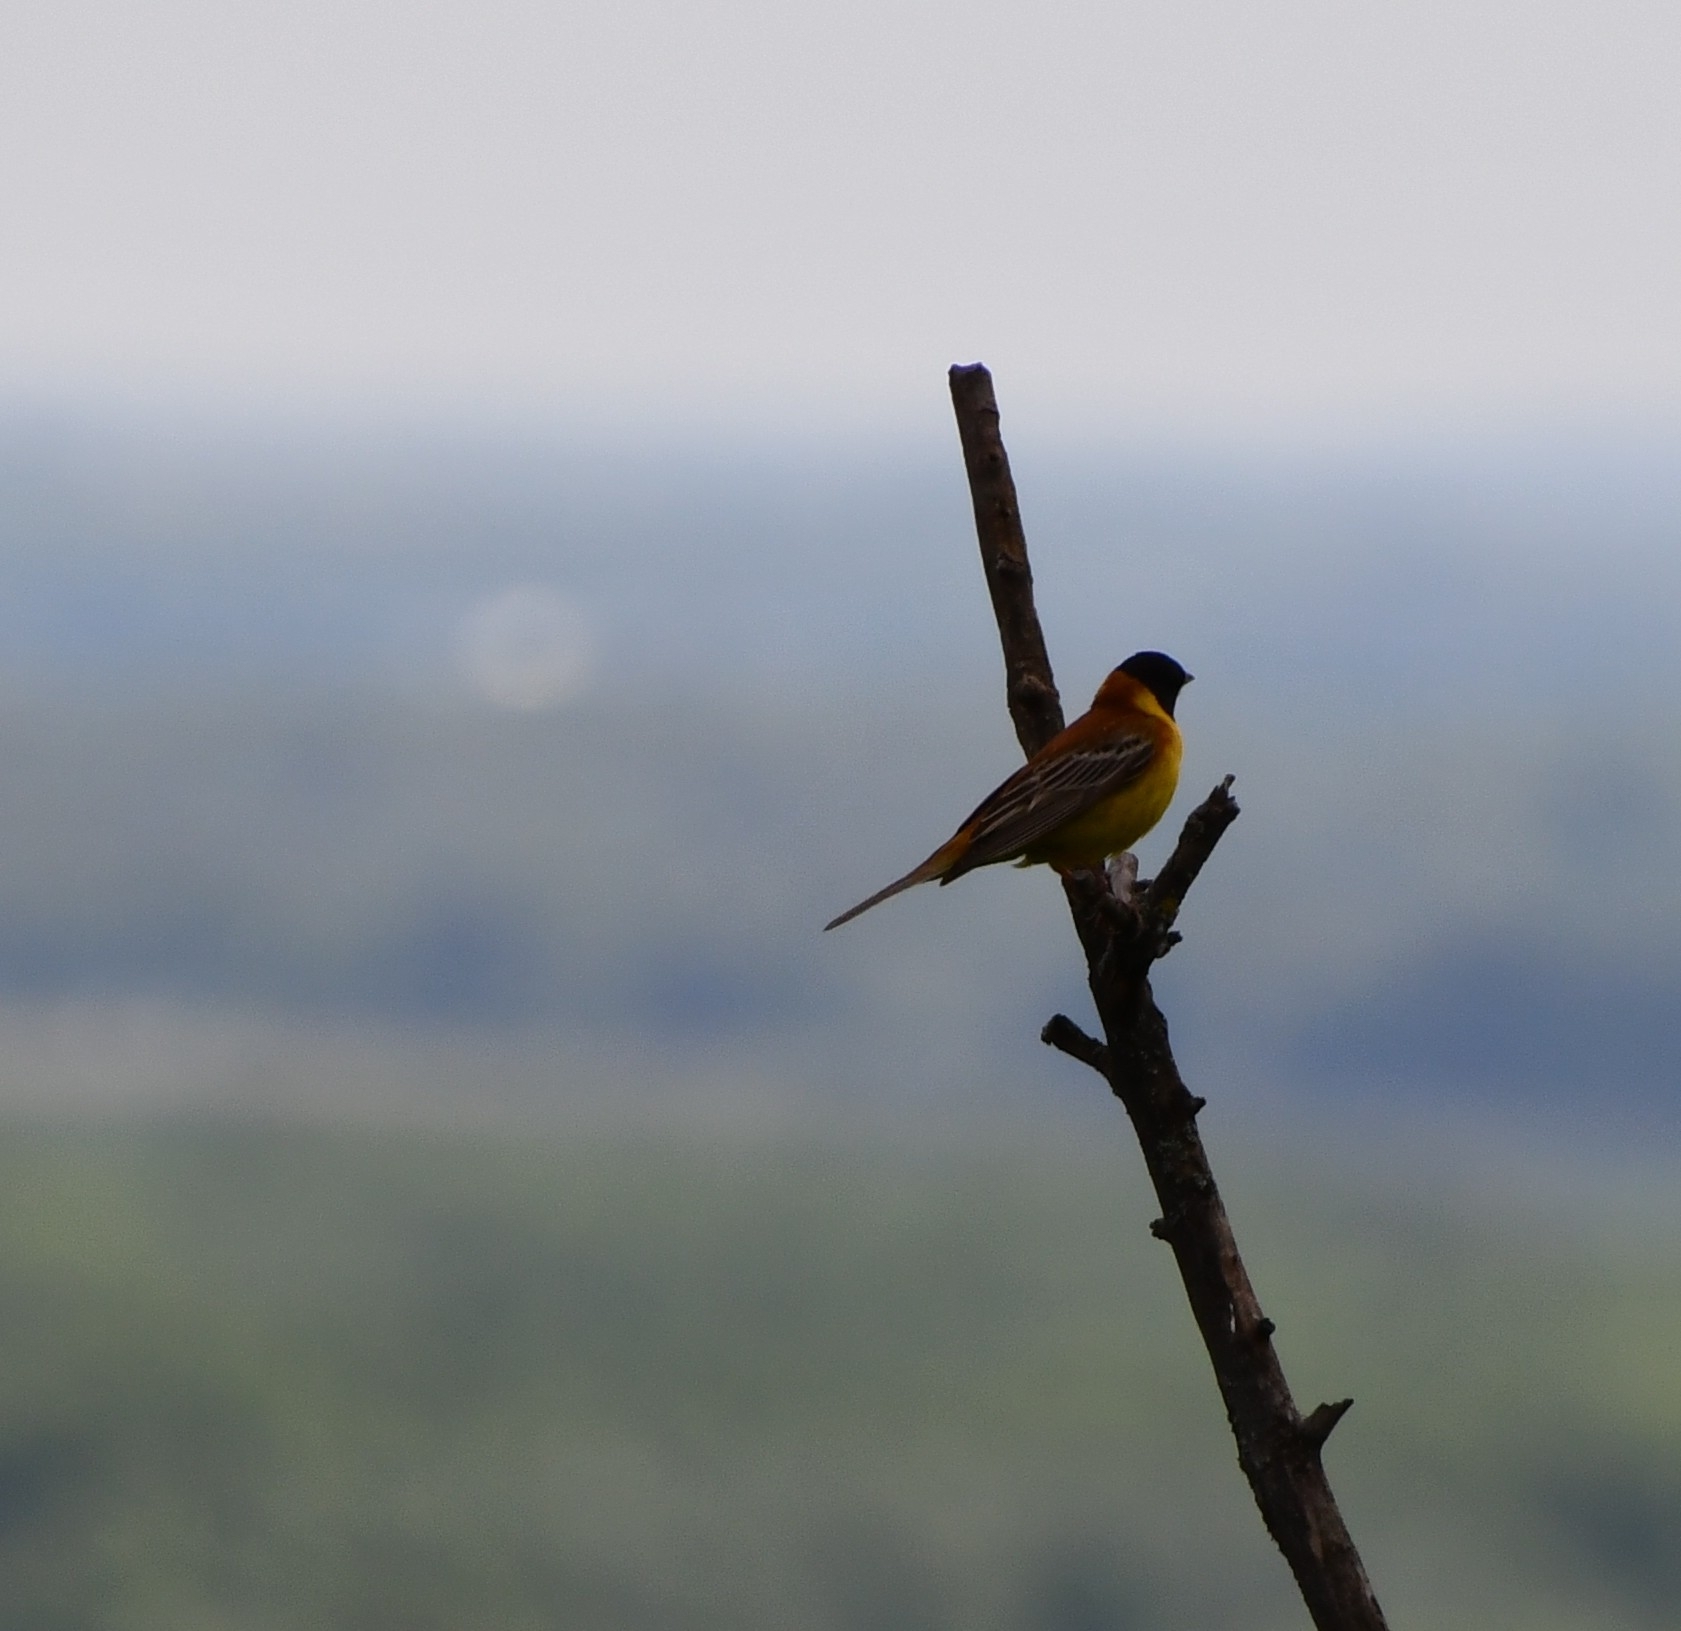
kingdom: Animalia
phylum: Chordata
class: Aves
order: Passeriformes
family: Emberizidae
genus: Emberiza
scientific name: Emberiza melanocephala
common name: Black-headed bunting
